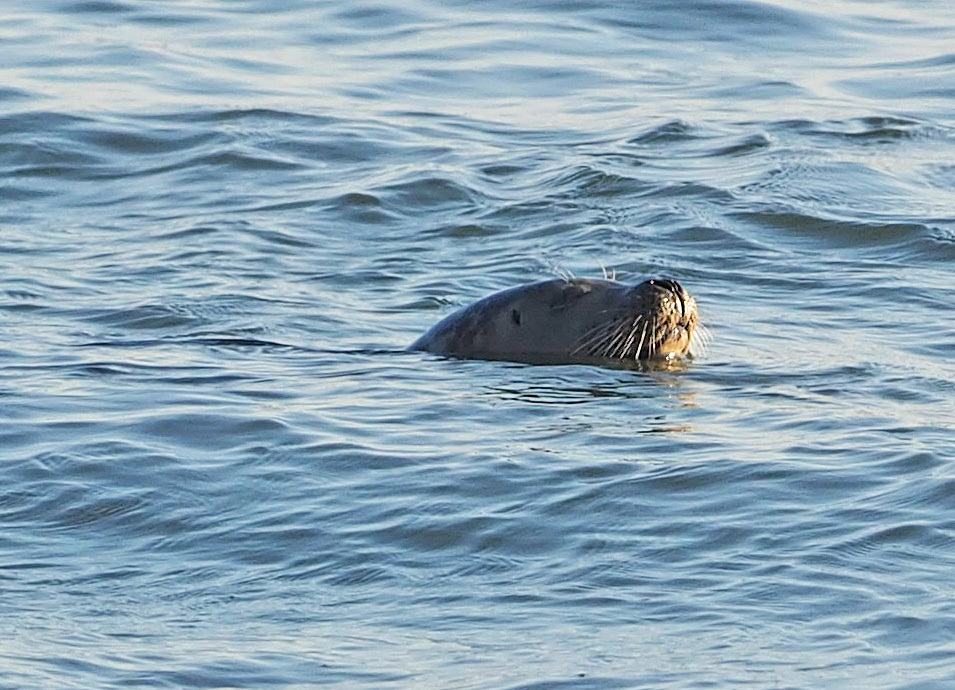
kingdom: Animalia
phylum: Chordata
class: Mammalia
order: Carnivora
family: Phocidae
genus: Phoca
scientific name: Phoca vitulina
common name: Harbor seal
